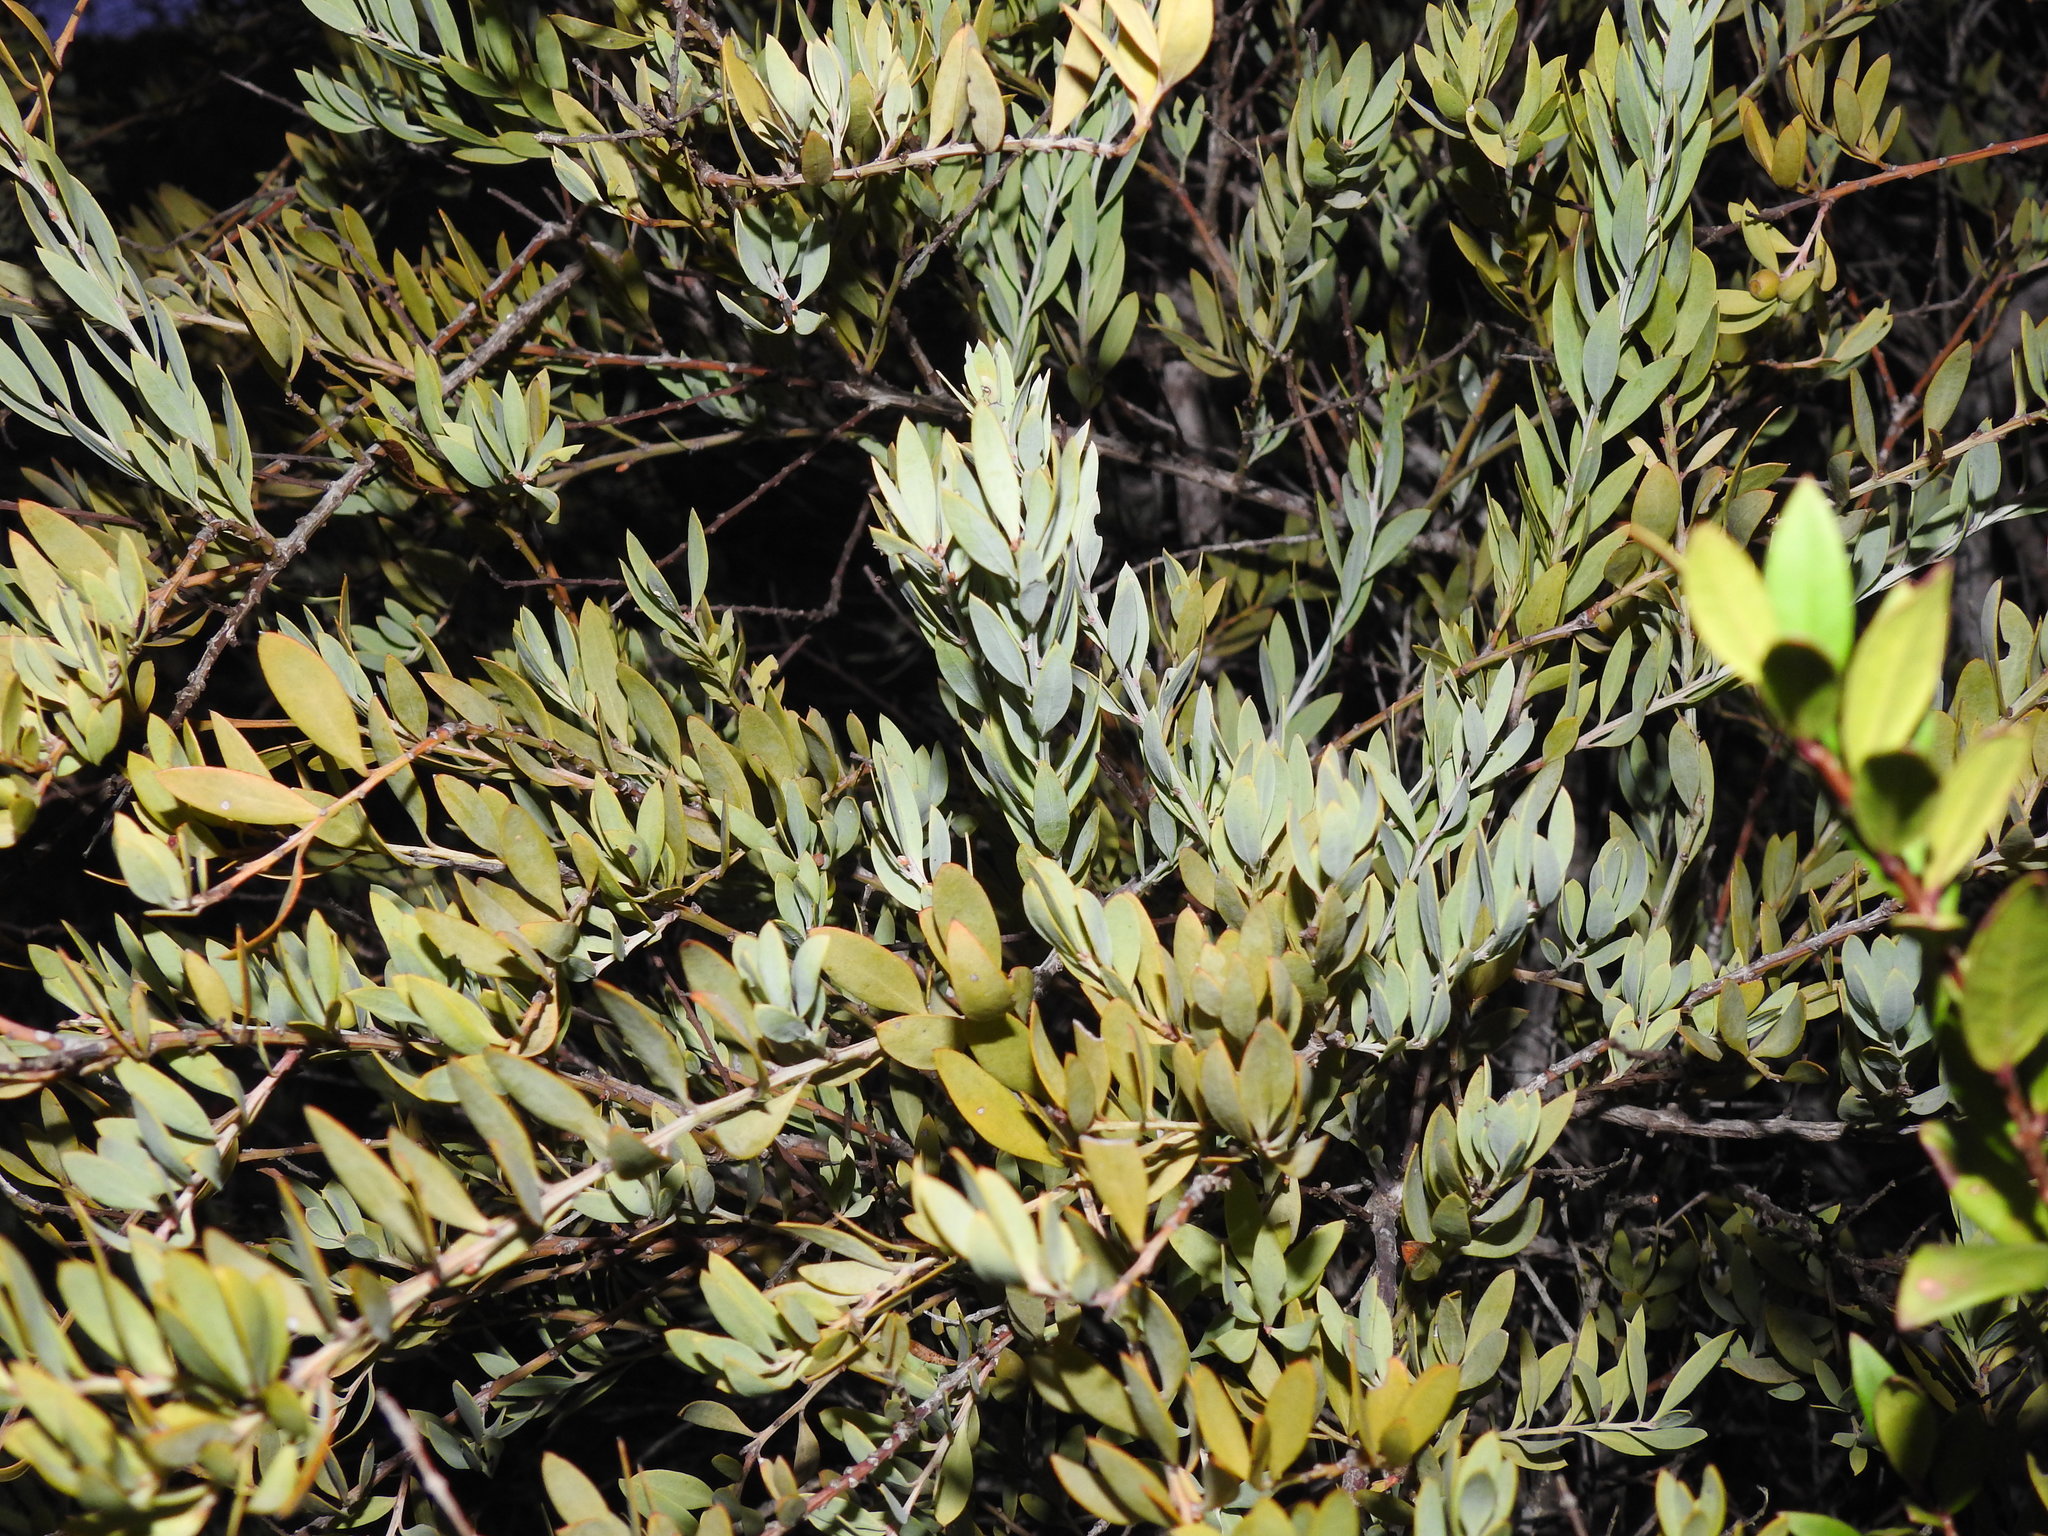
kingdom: Plantae
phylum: Tracheophyta
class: Magnoliopsida
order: Santalales
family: Santalaceae
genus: Osyris
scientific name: Osyris lanceolata
